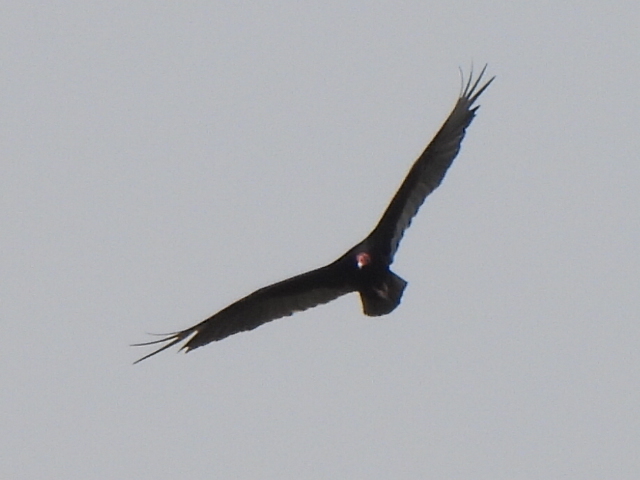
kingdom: Animalia
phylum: Chordata
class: Aves
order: Accipitriformes
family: Cathartidae
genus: Cathartes
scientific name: Cathartes aura
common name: Turkey vulture
